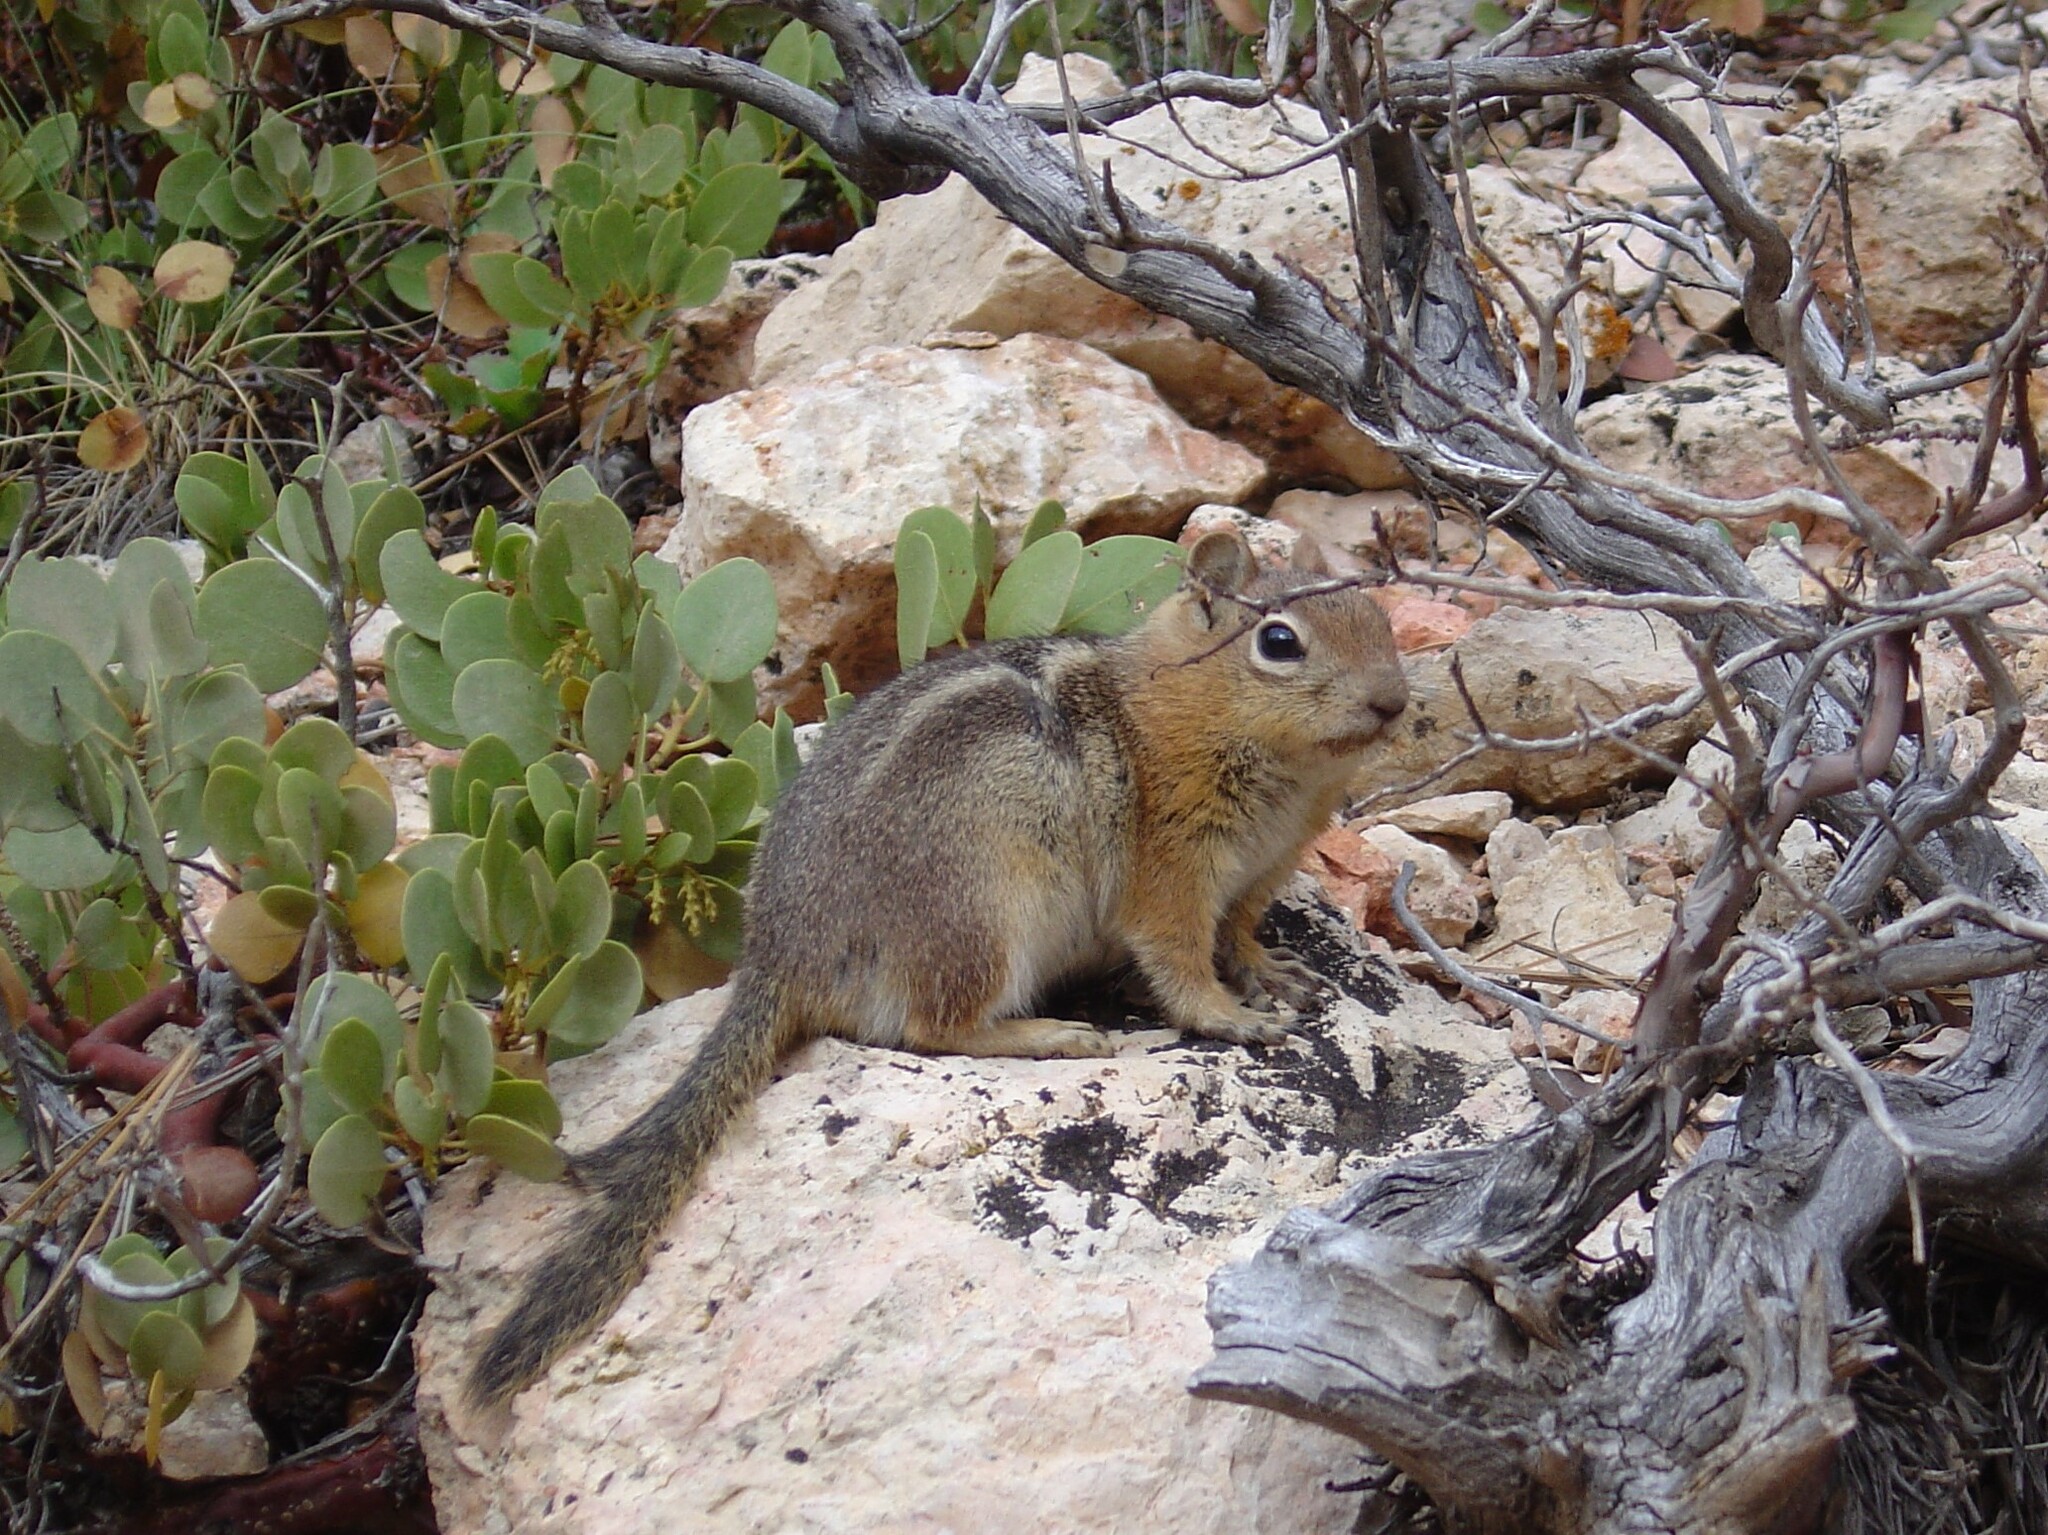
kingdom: Animalia
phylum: Chordata
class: Mammalia
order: Rodentia
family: Sciuridae
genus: Callospermophilus
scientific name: Callospermophilus lateralis
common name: Golden-mantled ground squirrel
